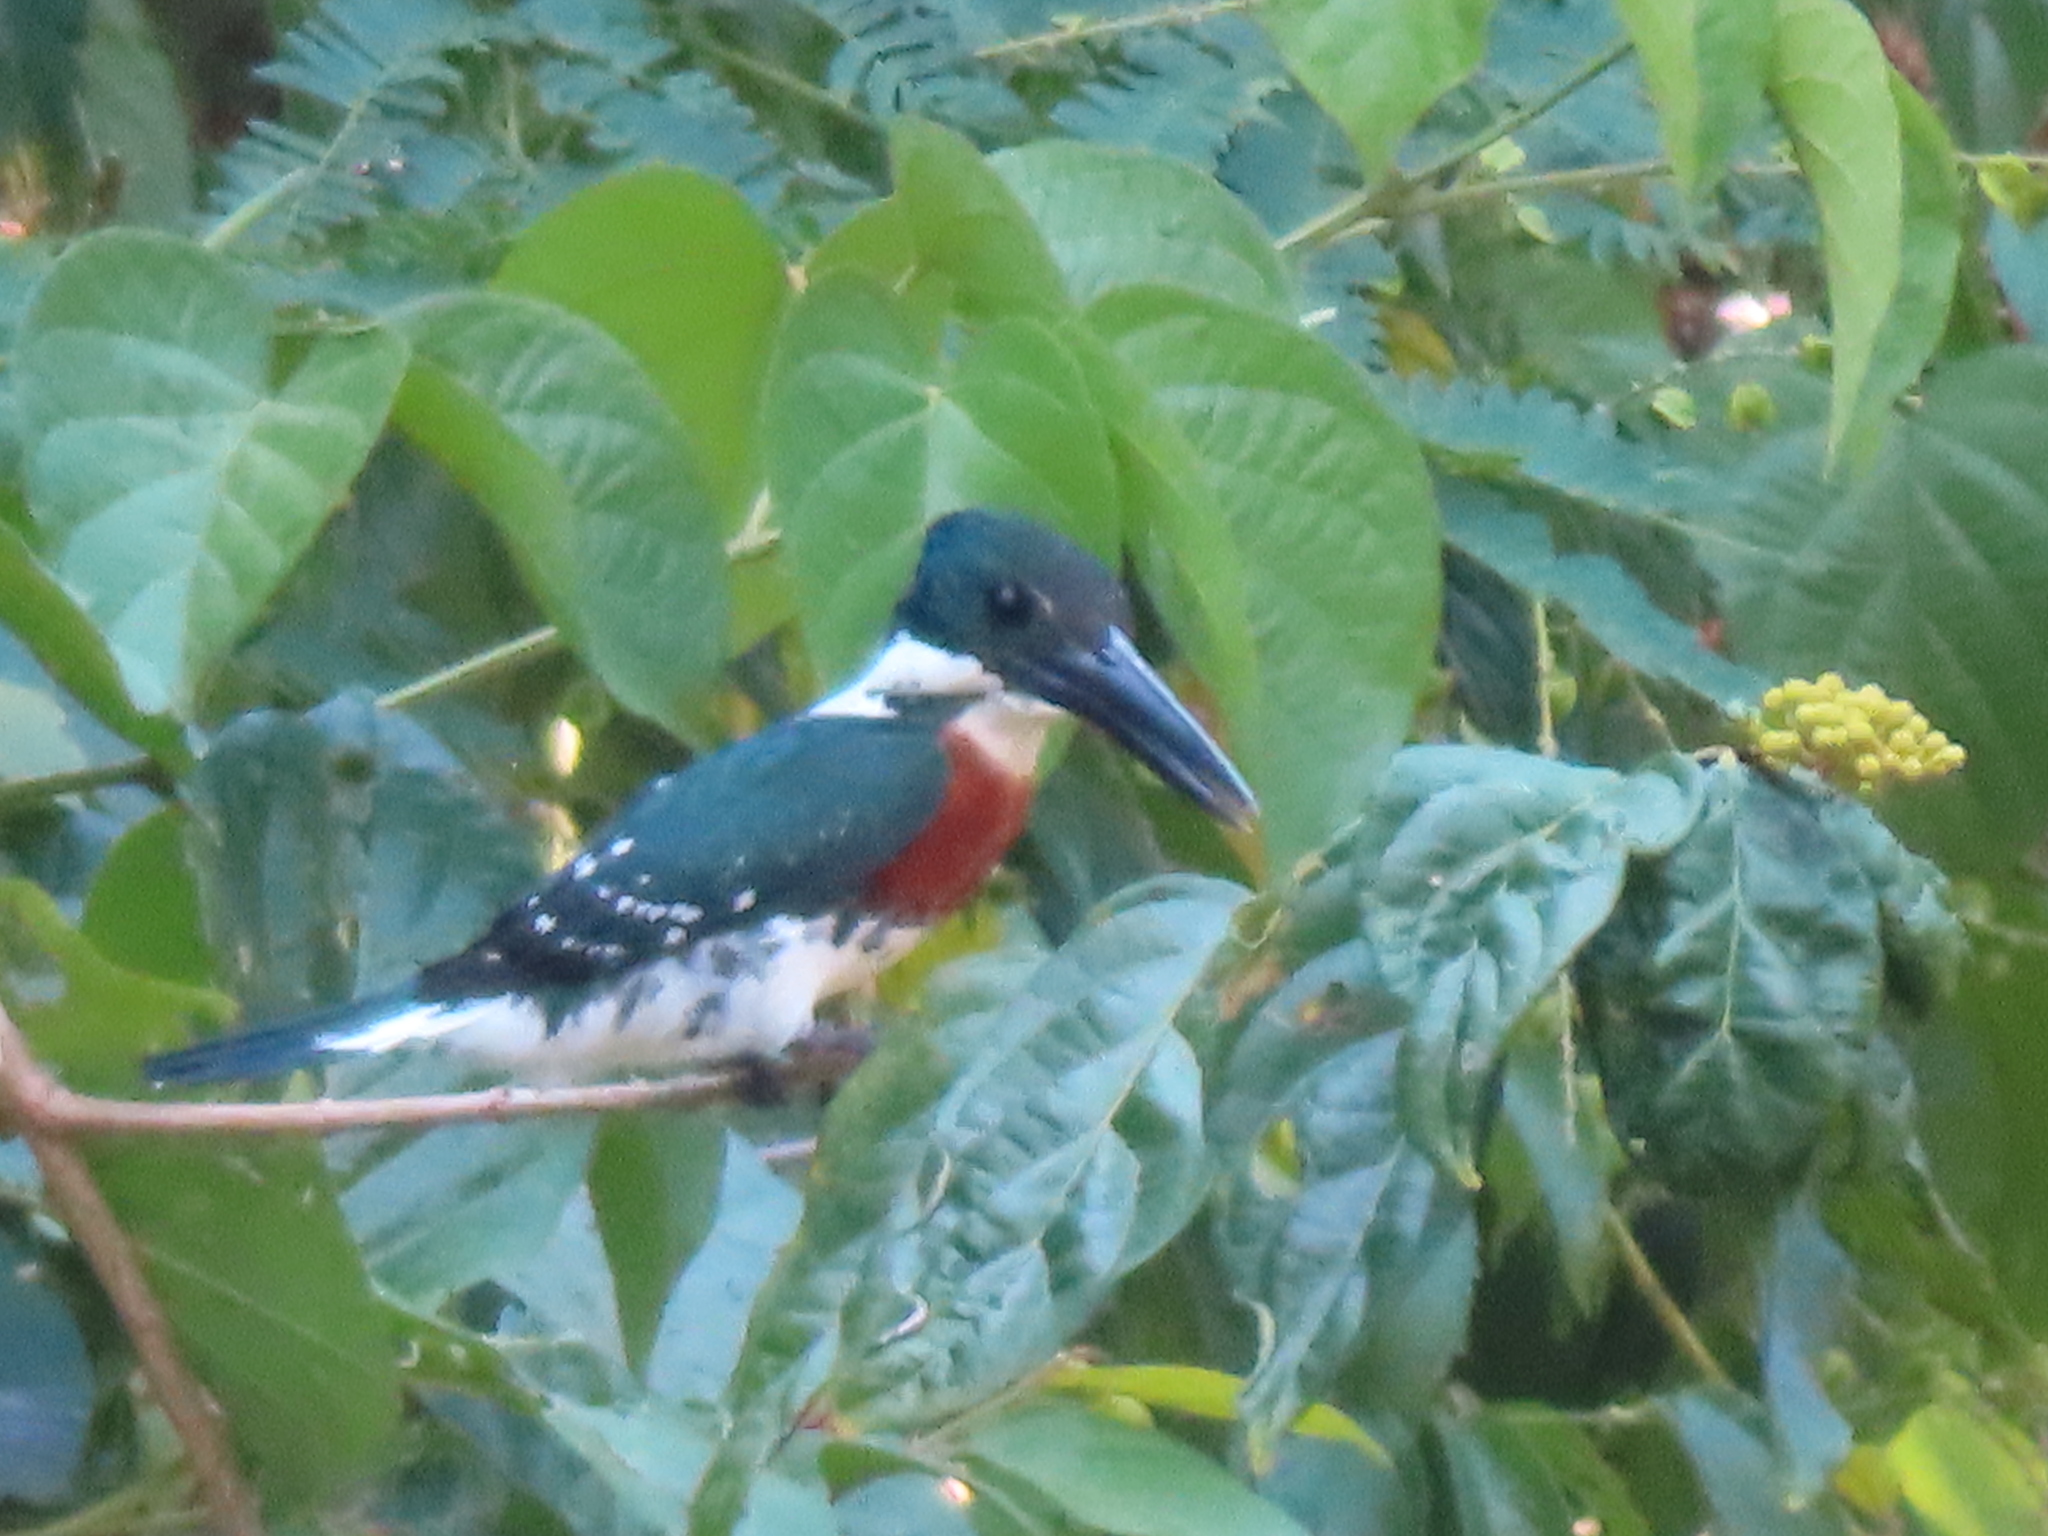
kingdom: Animalia
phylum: Chordata
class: Aves
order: Coraciiformes
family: Alcedinidae
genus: Chloroceryle
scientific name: Chloroceryle americana
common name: Green kingfisher
